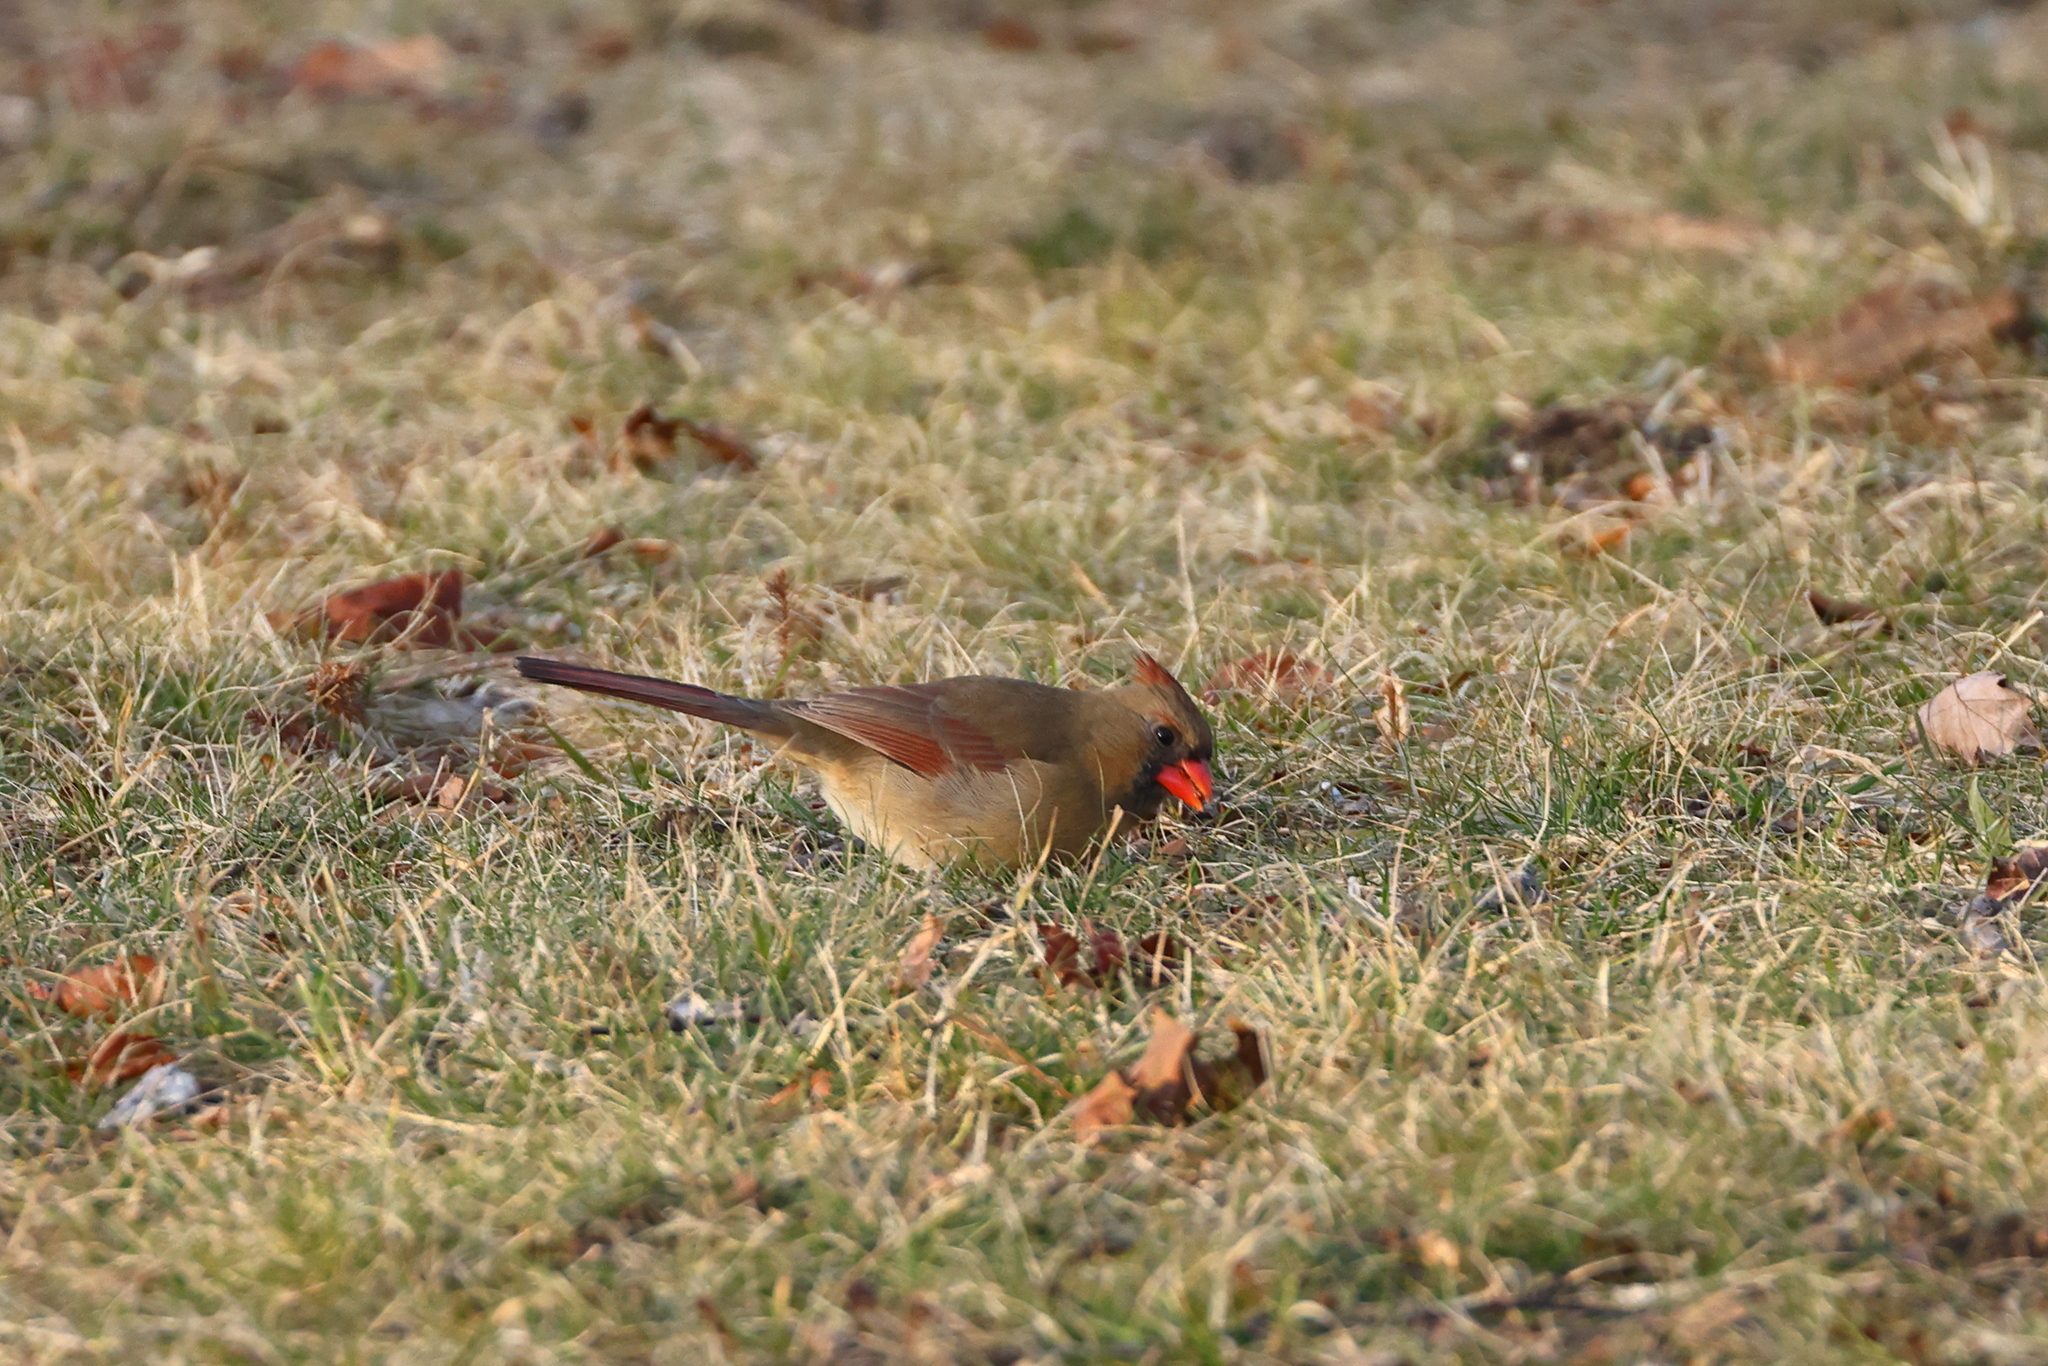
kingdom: Animalia
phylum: Chordata
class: Aves
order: Passeriformes
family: Cardinalidae
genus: Cardinalis
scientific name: Cardinalis cardinalis
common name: Northern cardinal
